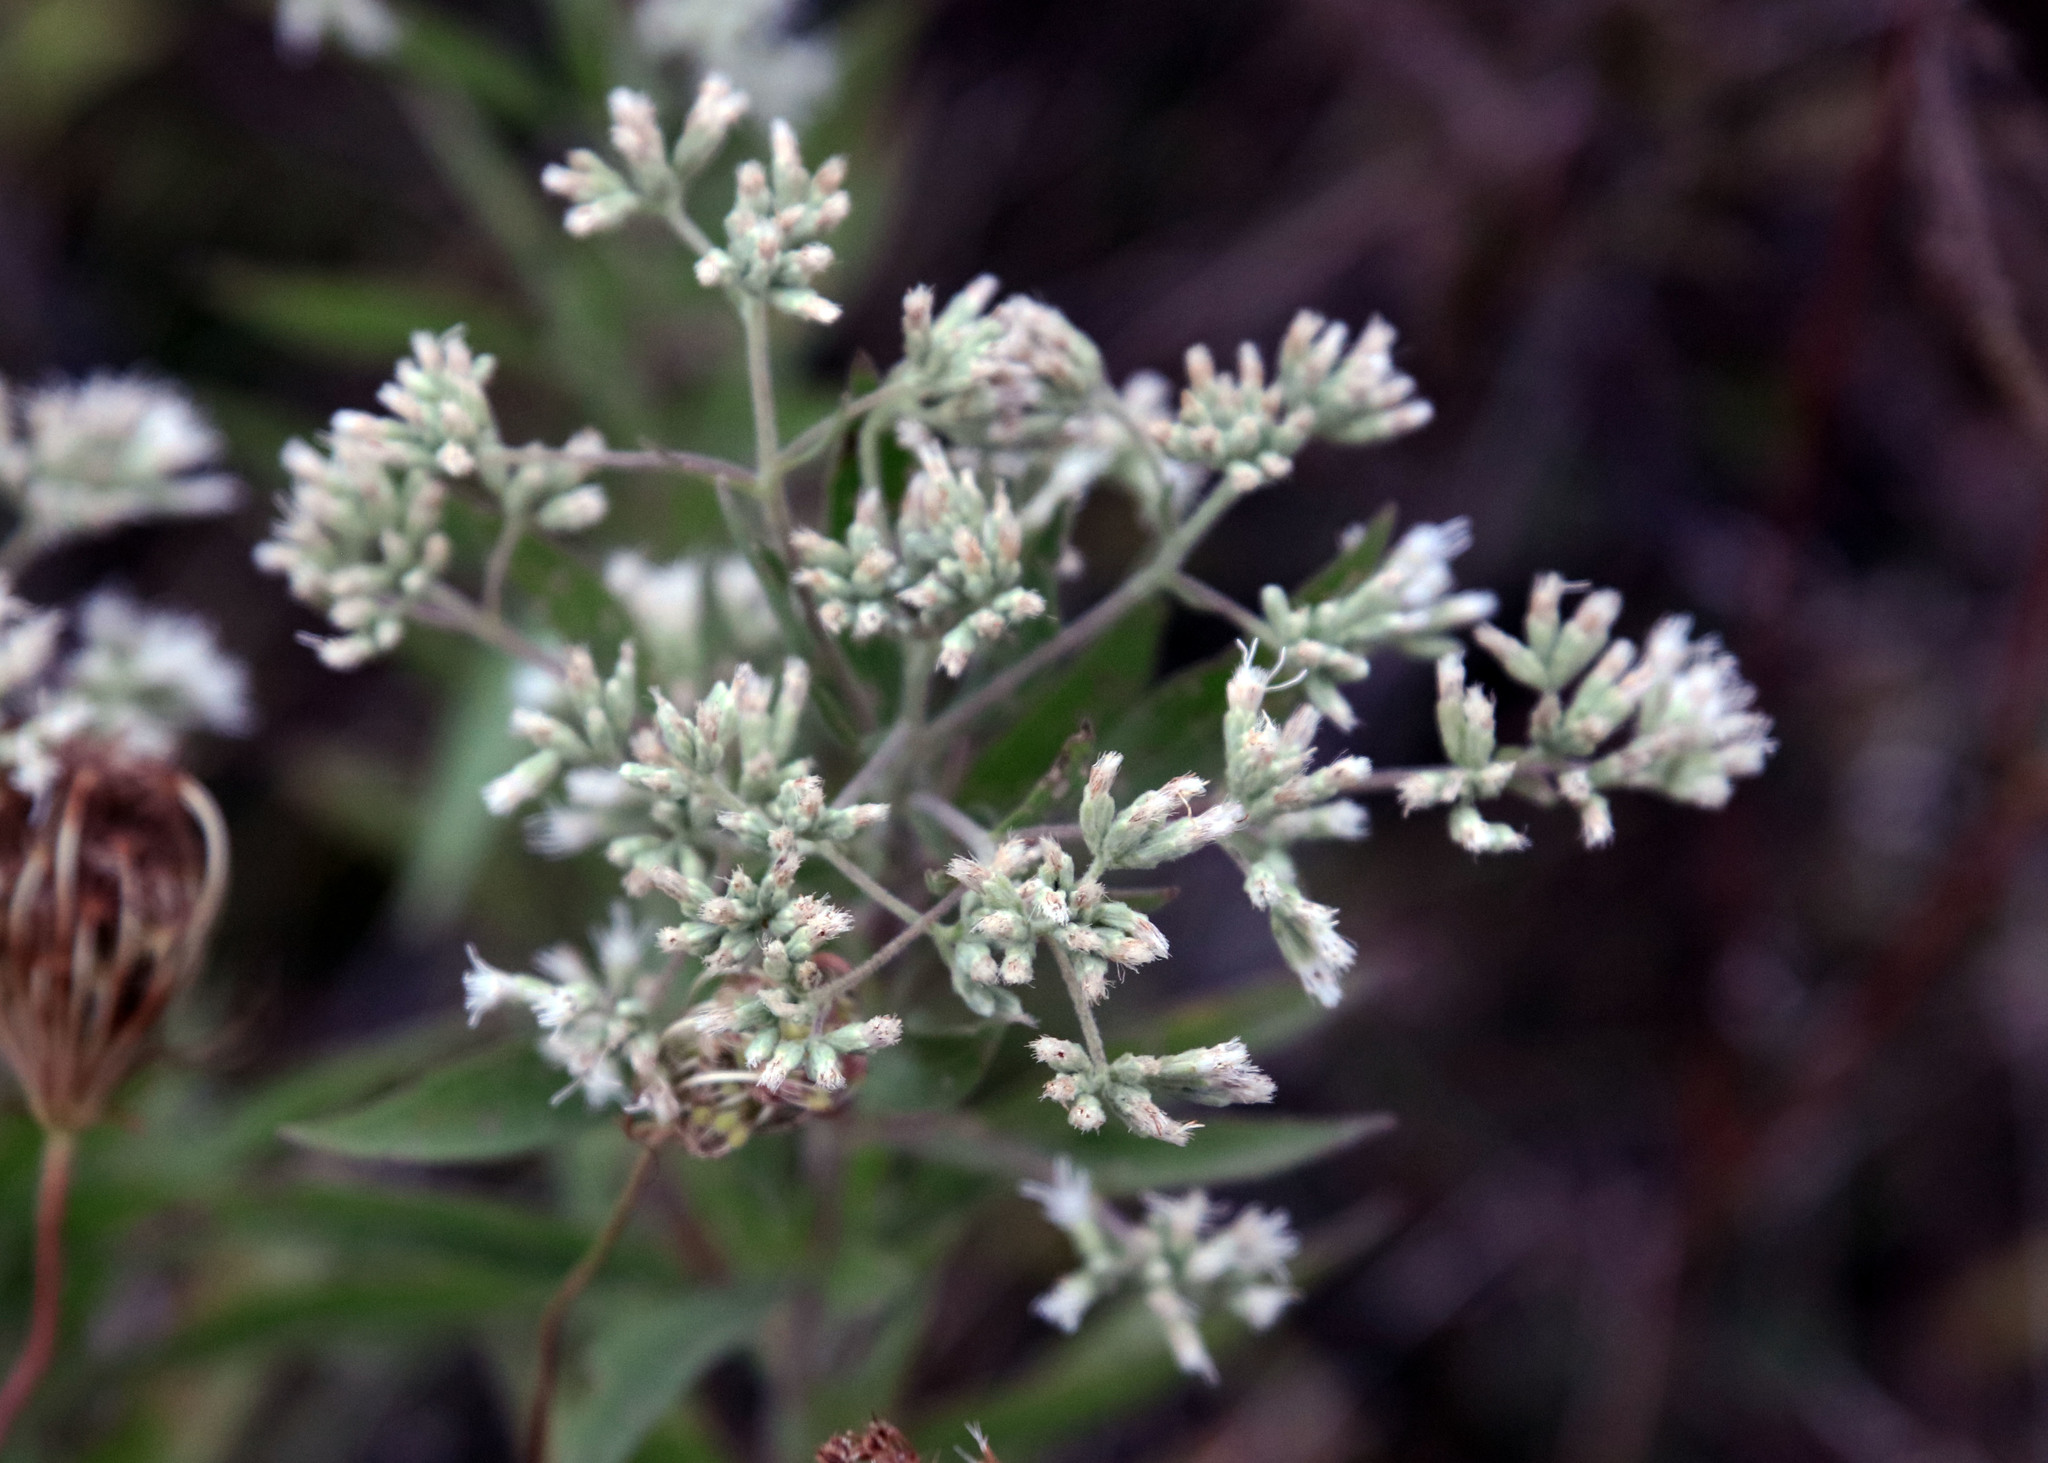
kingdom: Plantae
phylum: Tracheophyta
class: Magnoliopsida
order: Asterales
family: Asteraceae
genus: Eupatorium
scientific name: Eupatorium altissimum
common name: Tall thoroughwort
